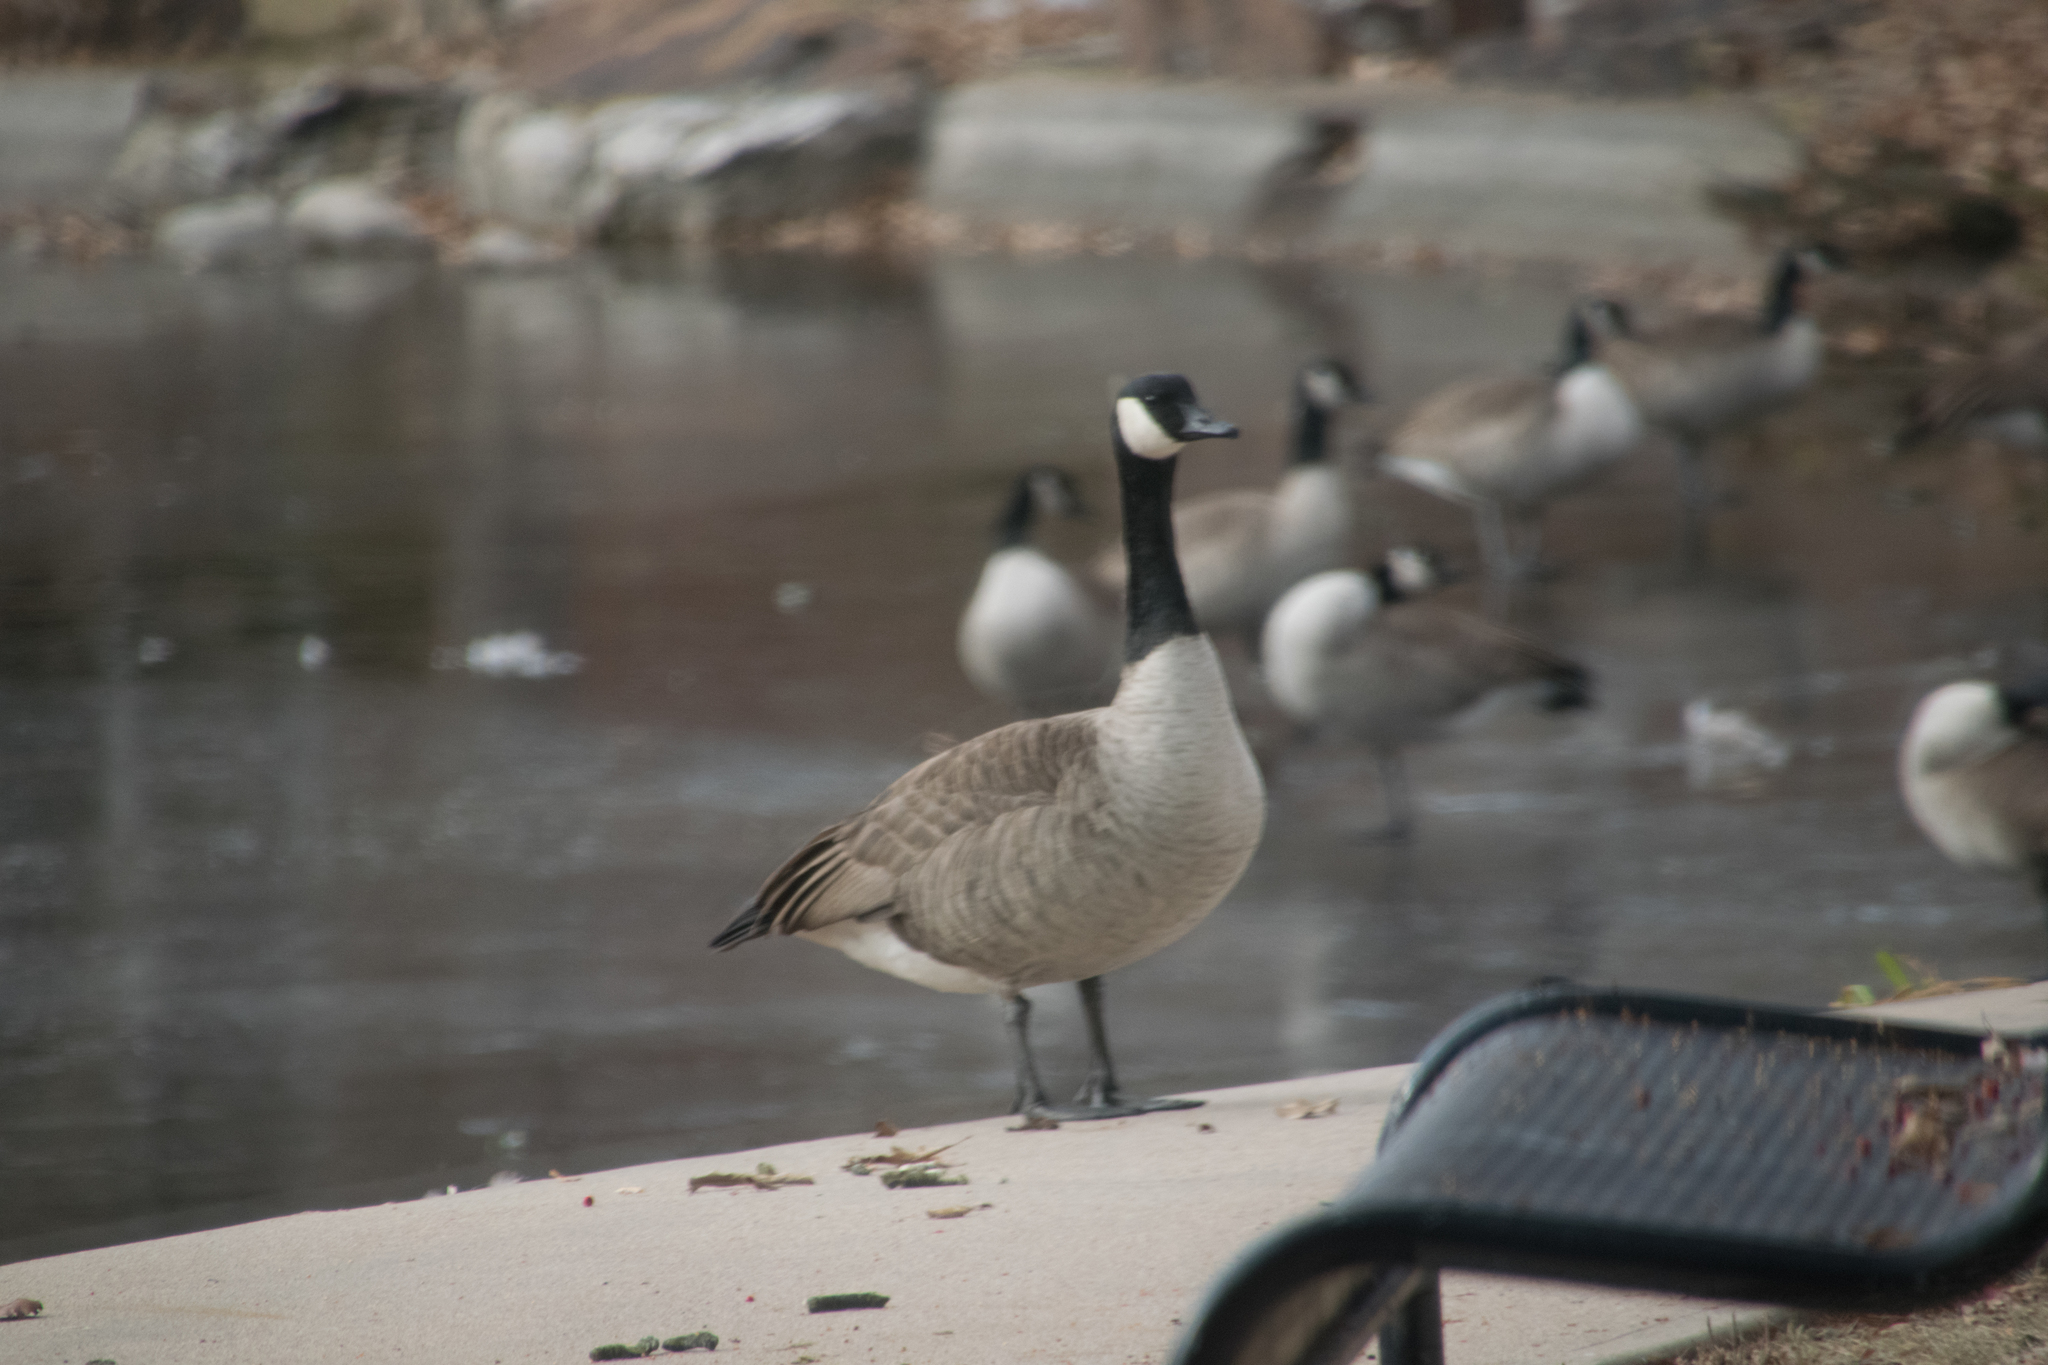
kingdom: Animalia
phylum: Chordata
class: Aves
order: Anseriformes
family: Anatidae
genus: Branta
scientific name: Branta canadensis
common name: Canada goose
